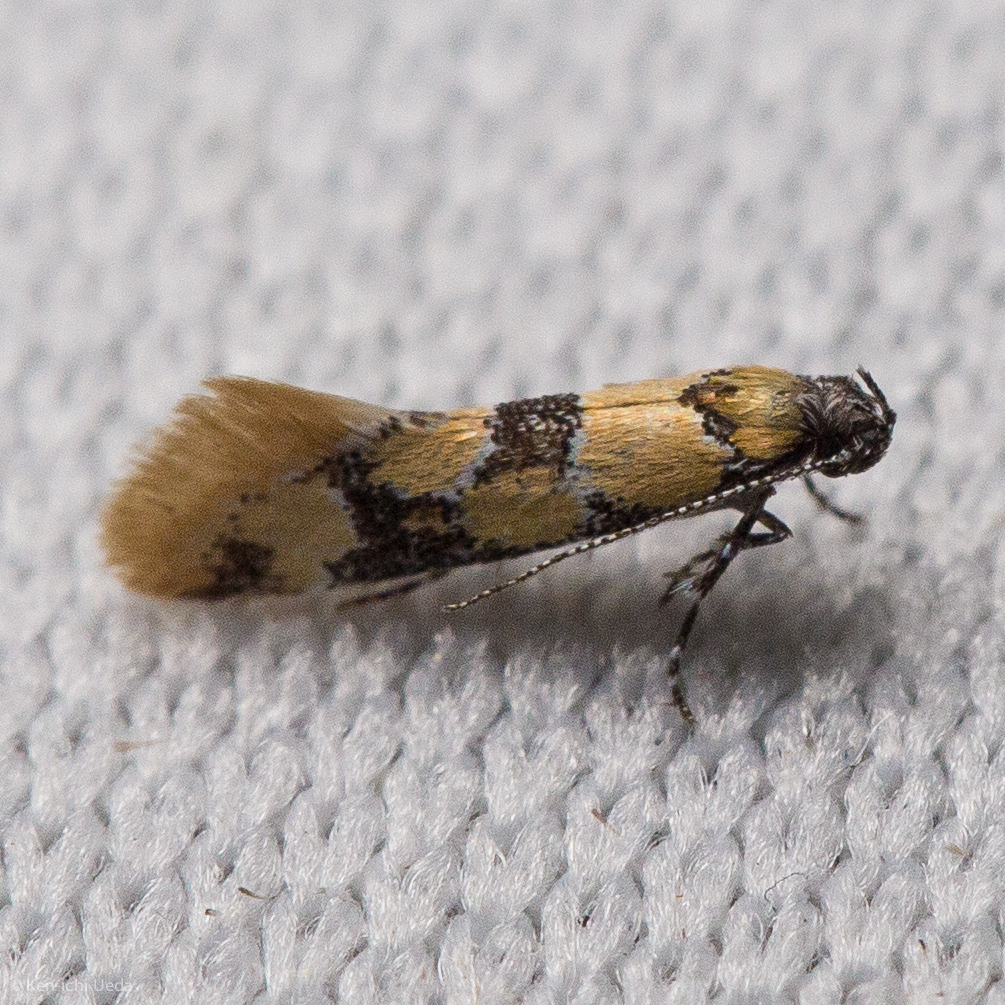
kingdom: Animalia
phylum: Arthropoda
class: Insecta
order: Lepidoptera
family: Oecophoridae
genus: Decantha
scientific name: Decantha stonda
